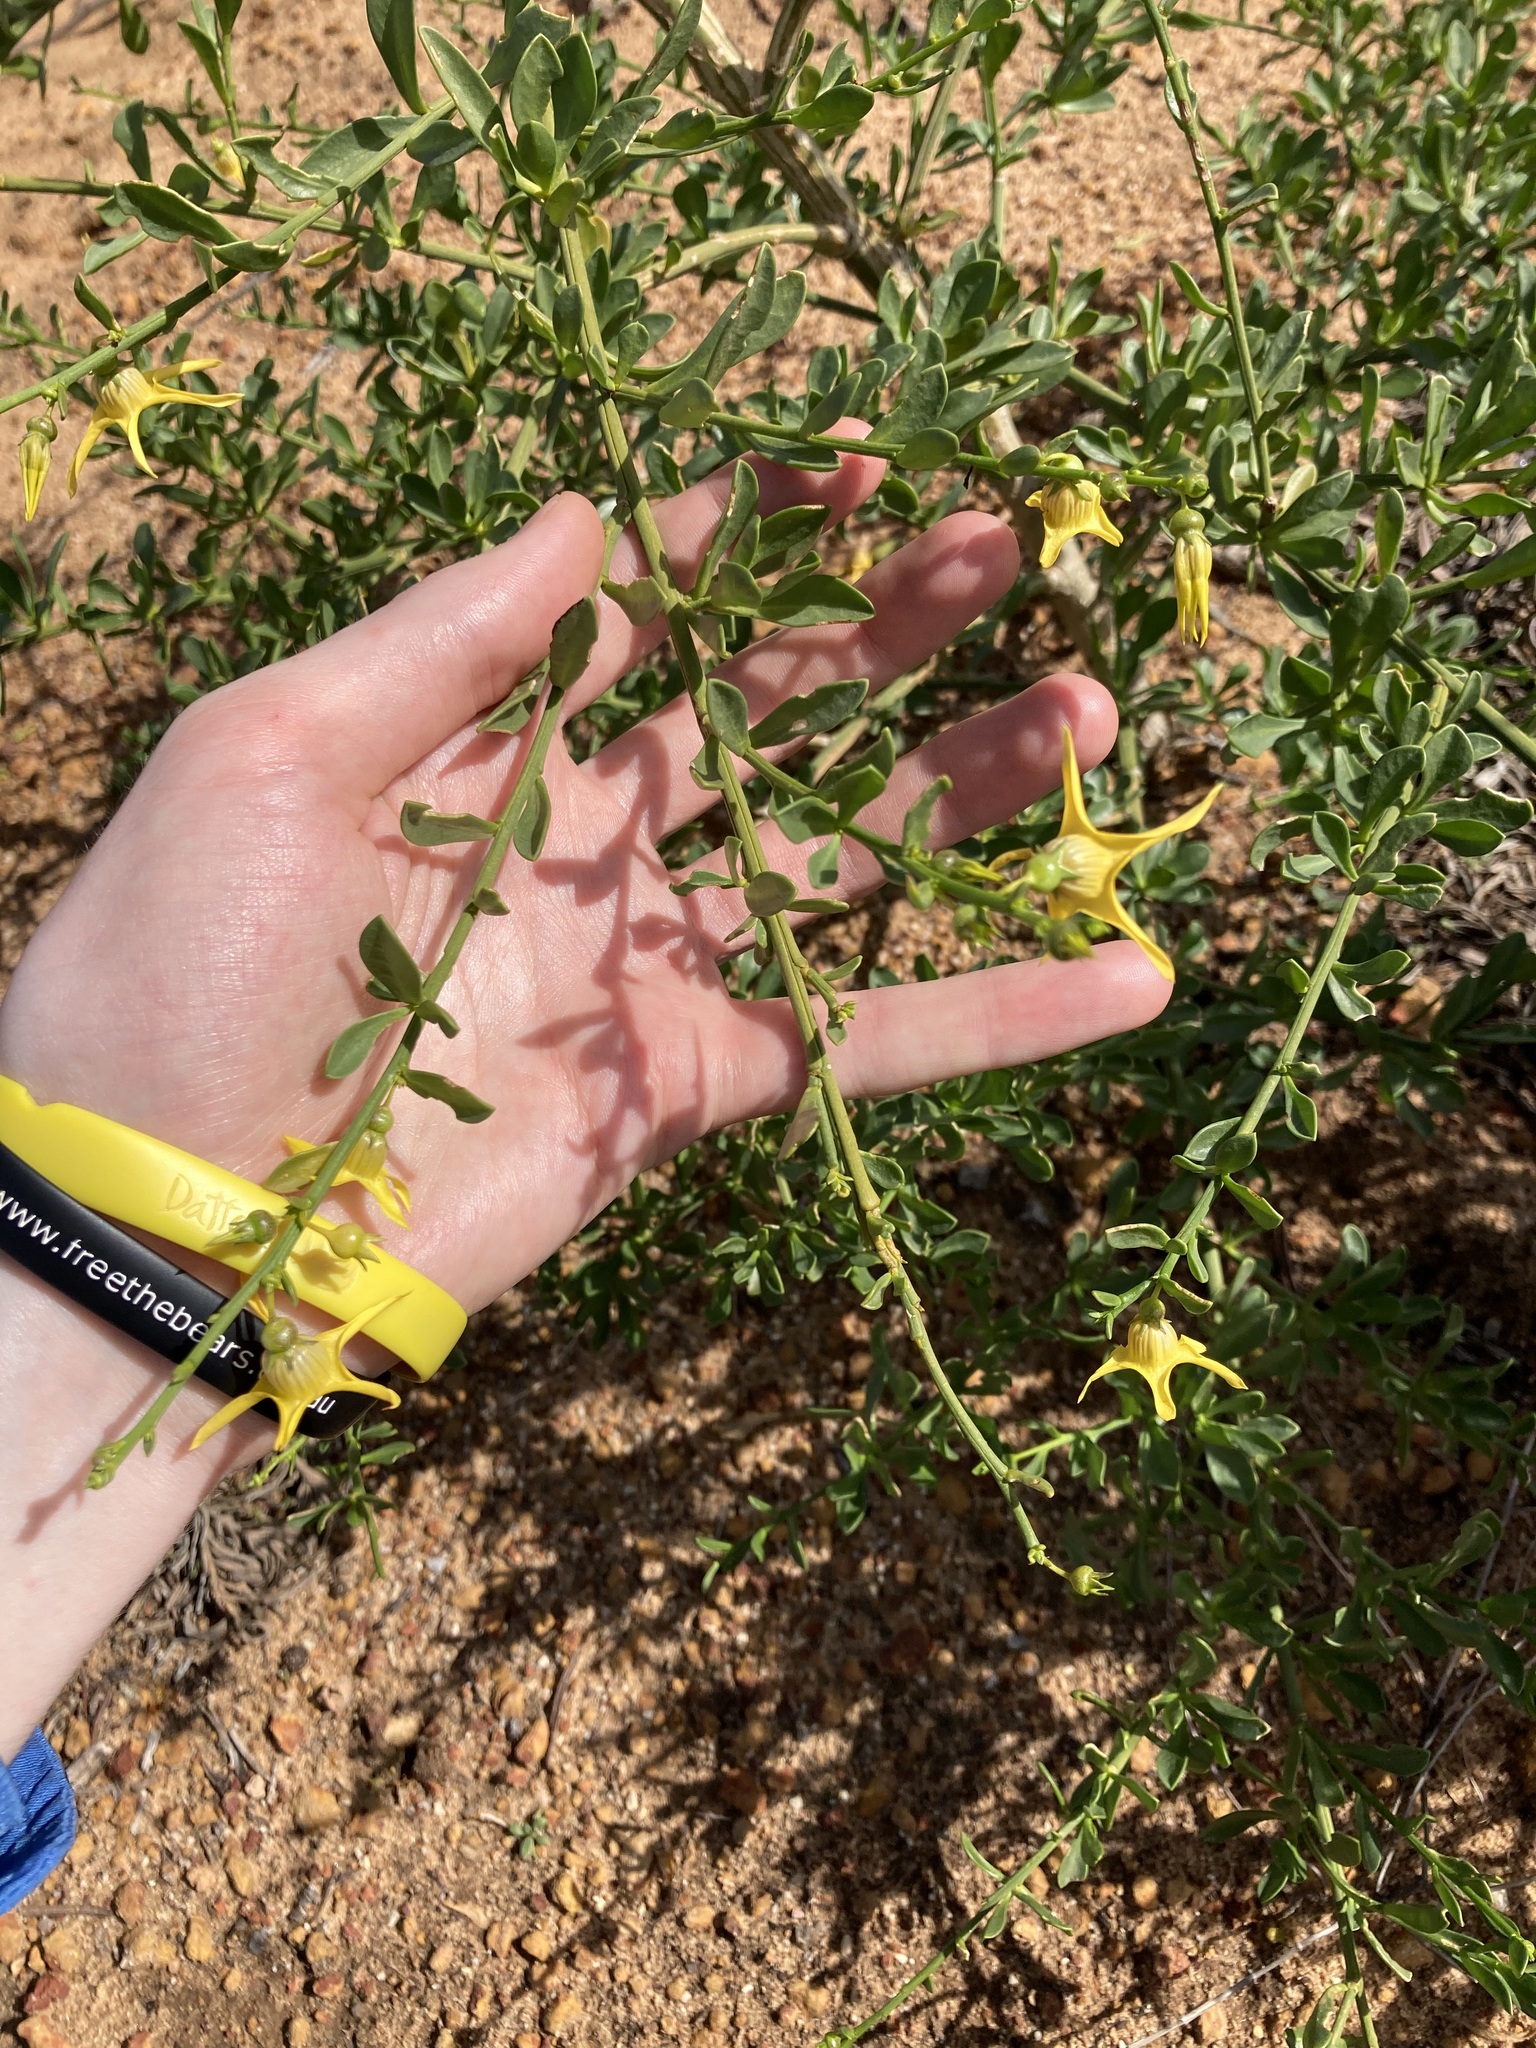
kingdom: Plantae
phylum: Tracheophyta
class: Magnoliopsida
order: Solanales
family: Solanaceae
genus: Anthocercis
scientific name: Anthocercis ilicifolia
